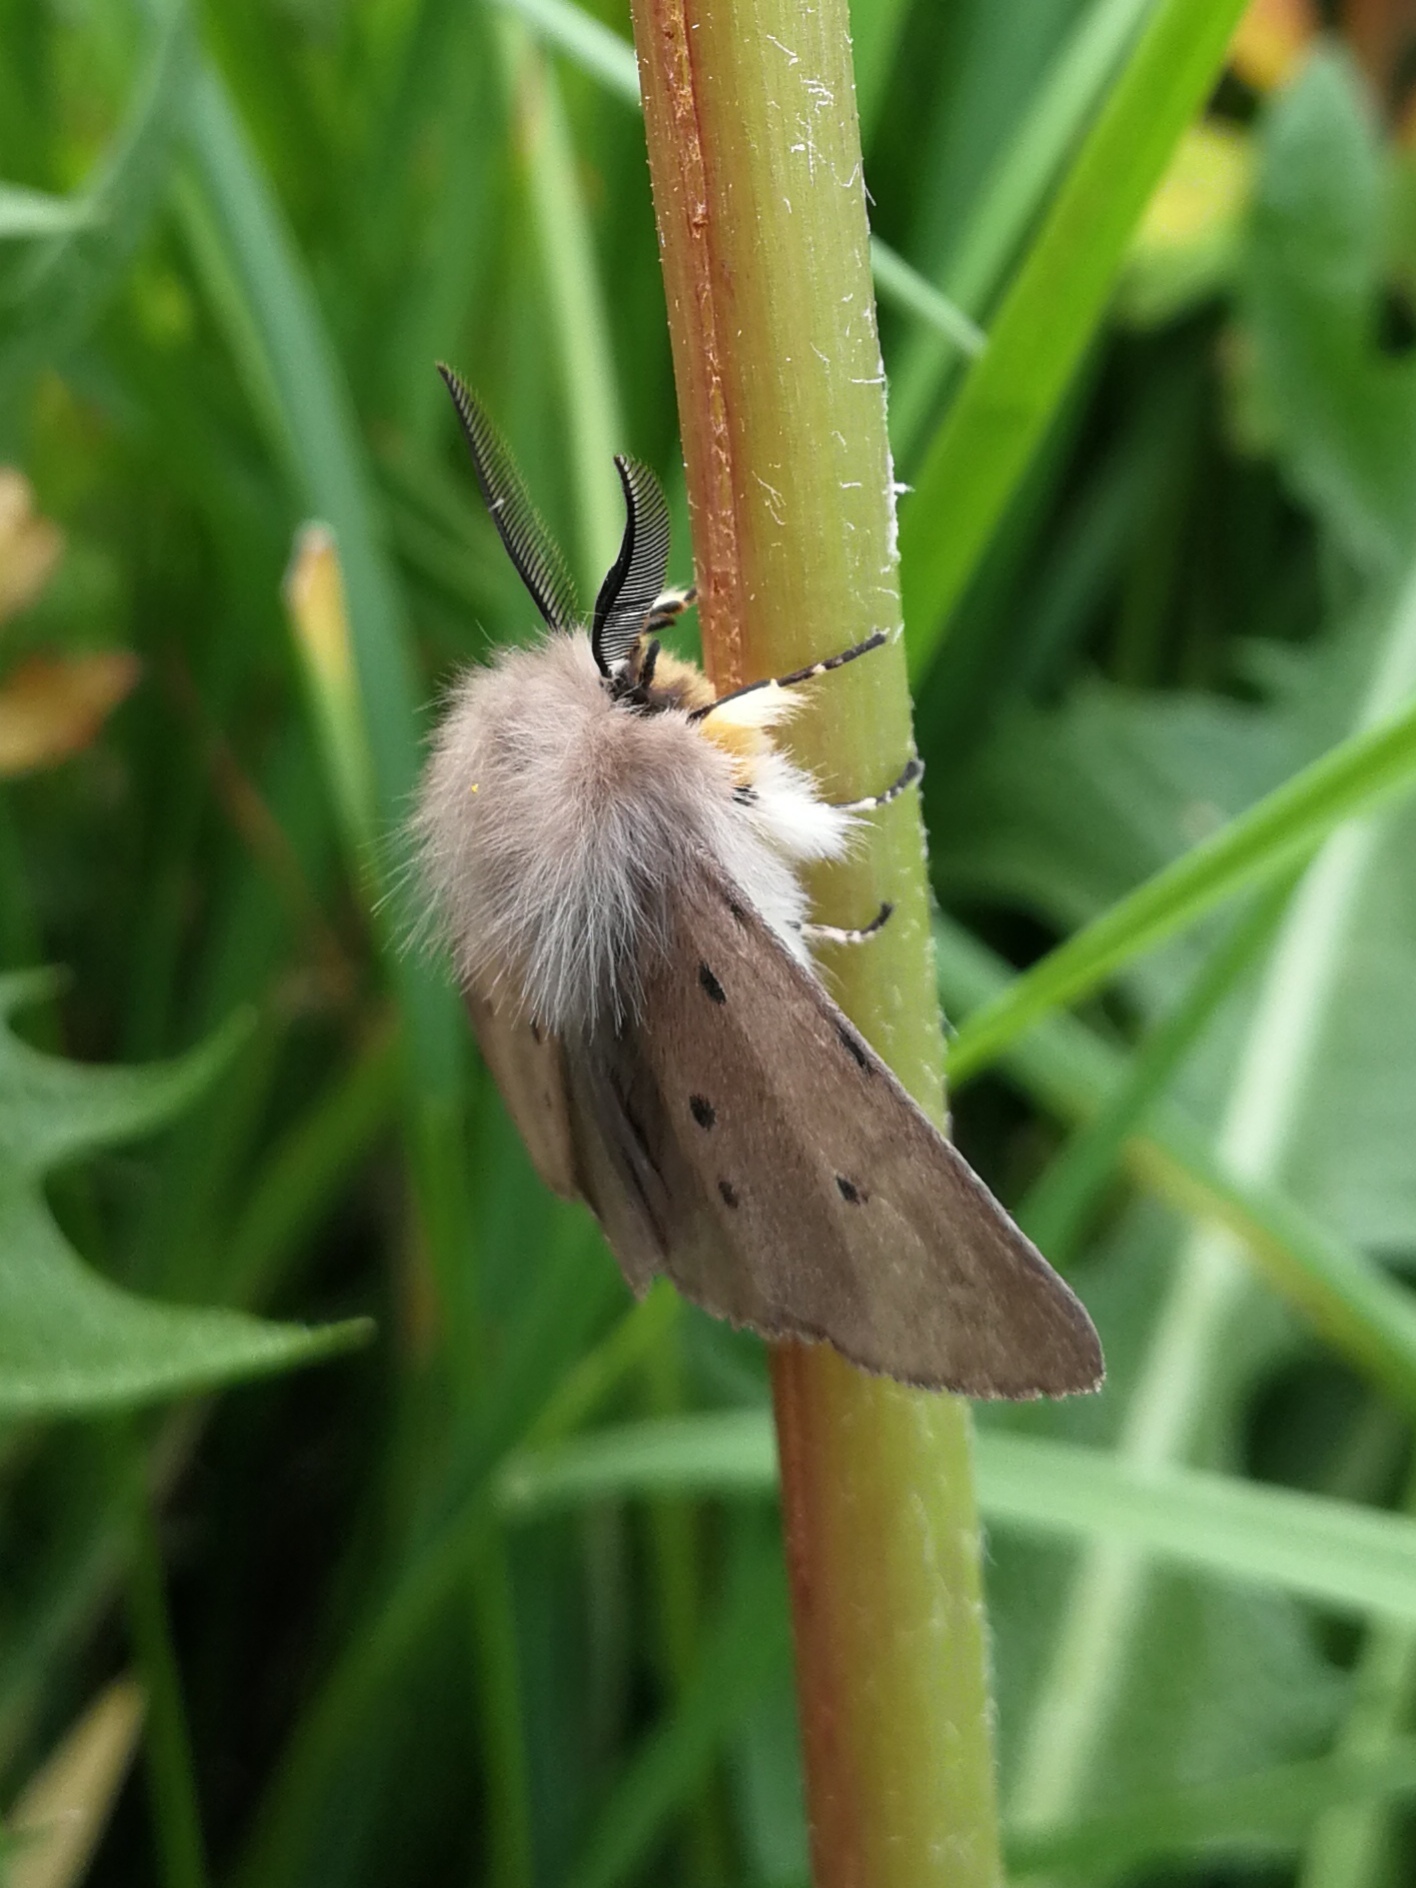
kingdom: Animalia
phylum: Arthropoda
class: Insecta
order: Lepidoptera
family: Erebidae
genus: Diaphora
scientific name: Diaphora mendica
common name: Muslin moth
